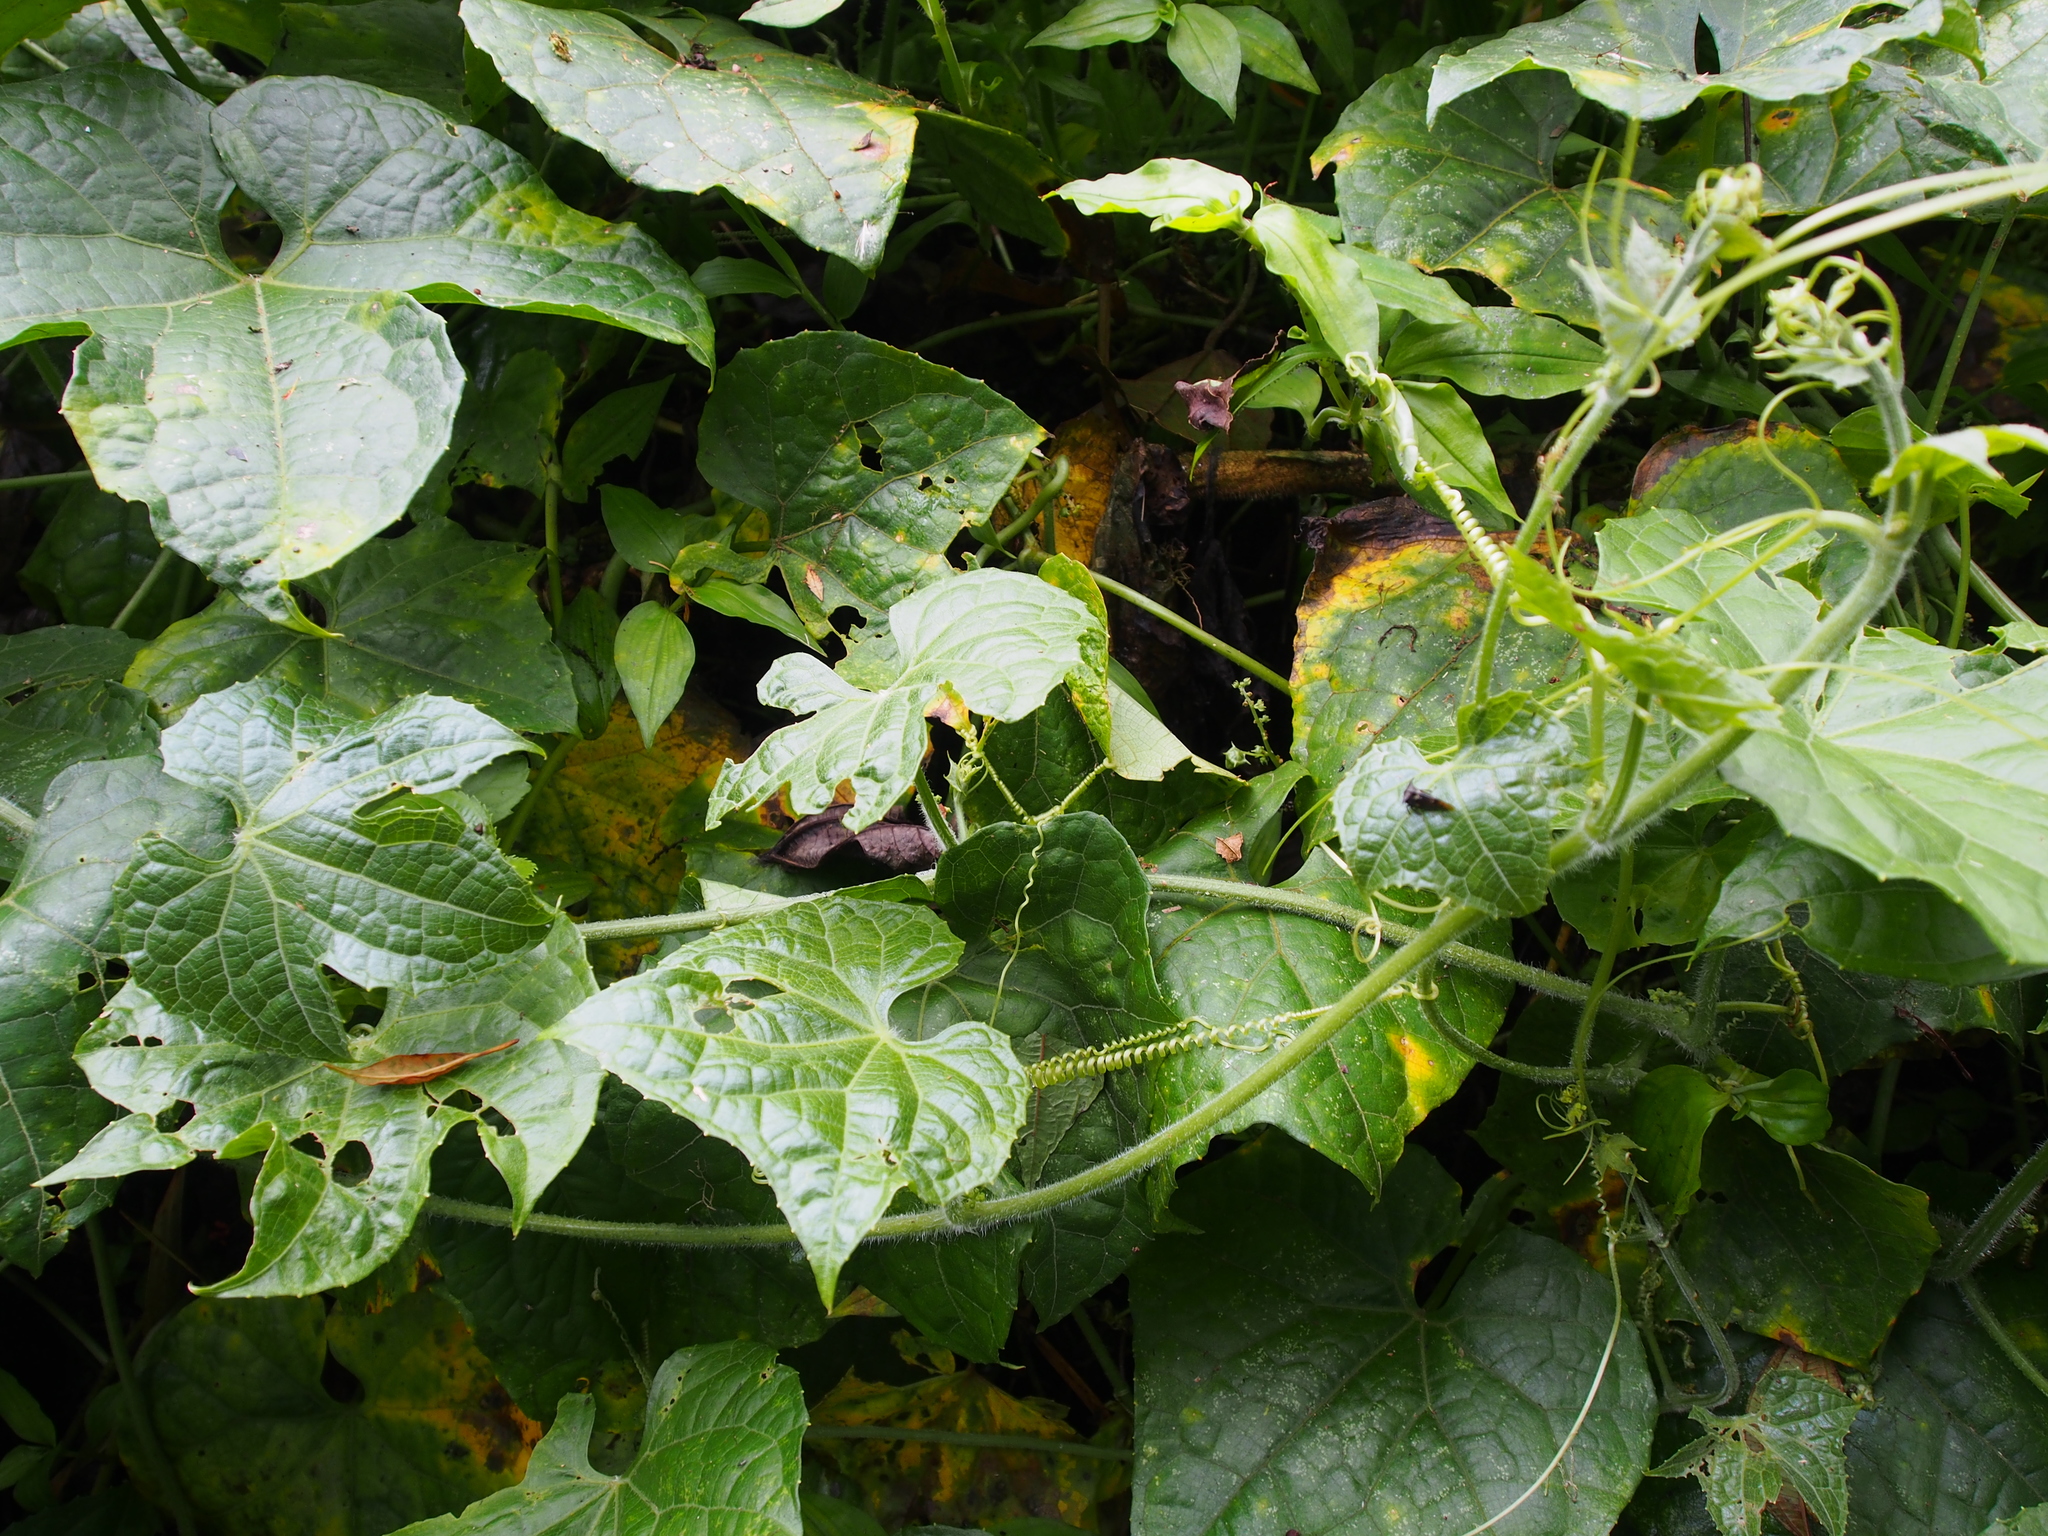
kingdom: Plantae
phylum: Tracheophyta
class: Magnoliopsida
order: Cucurbitales
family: Cucurbitaceae
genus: Frantzia
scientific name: Frantzia pittieri
